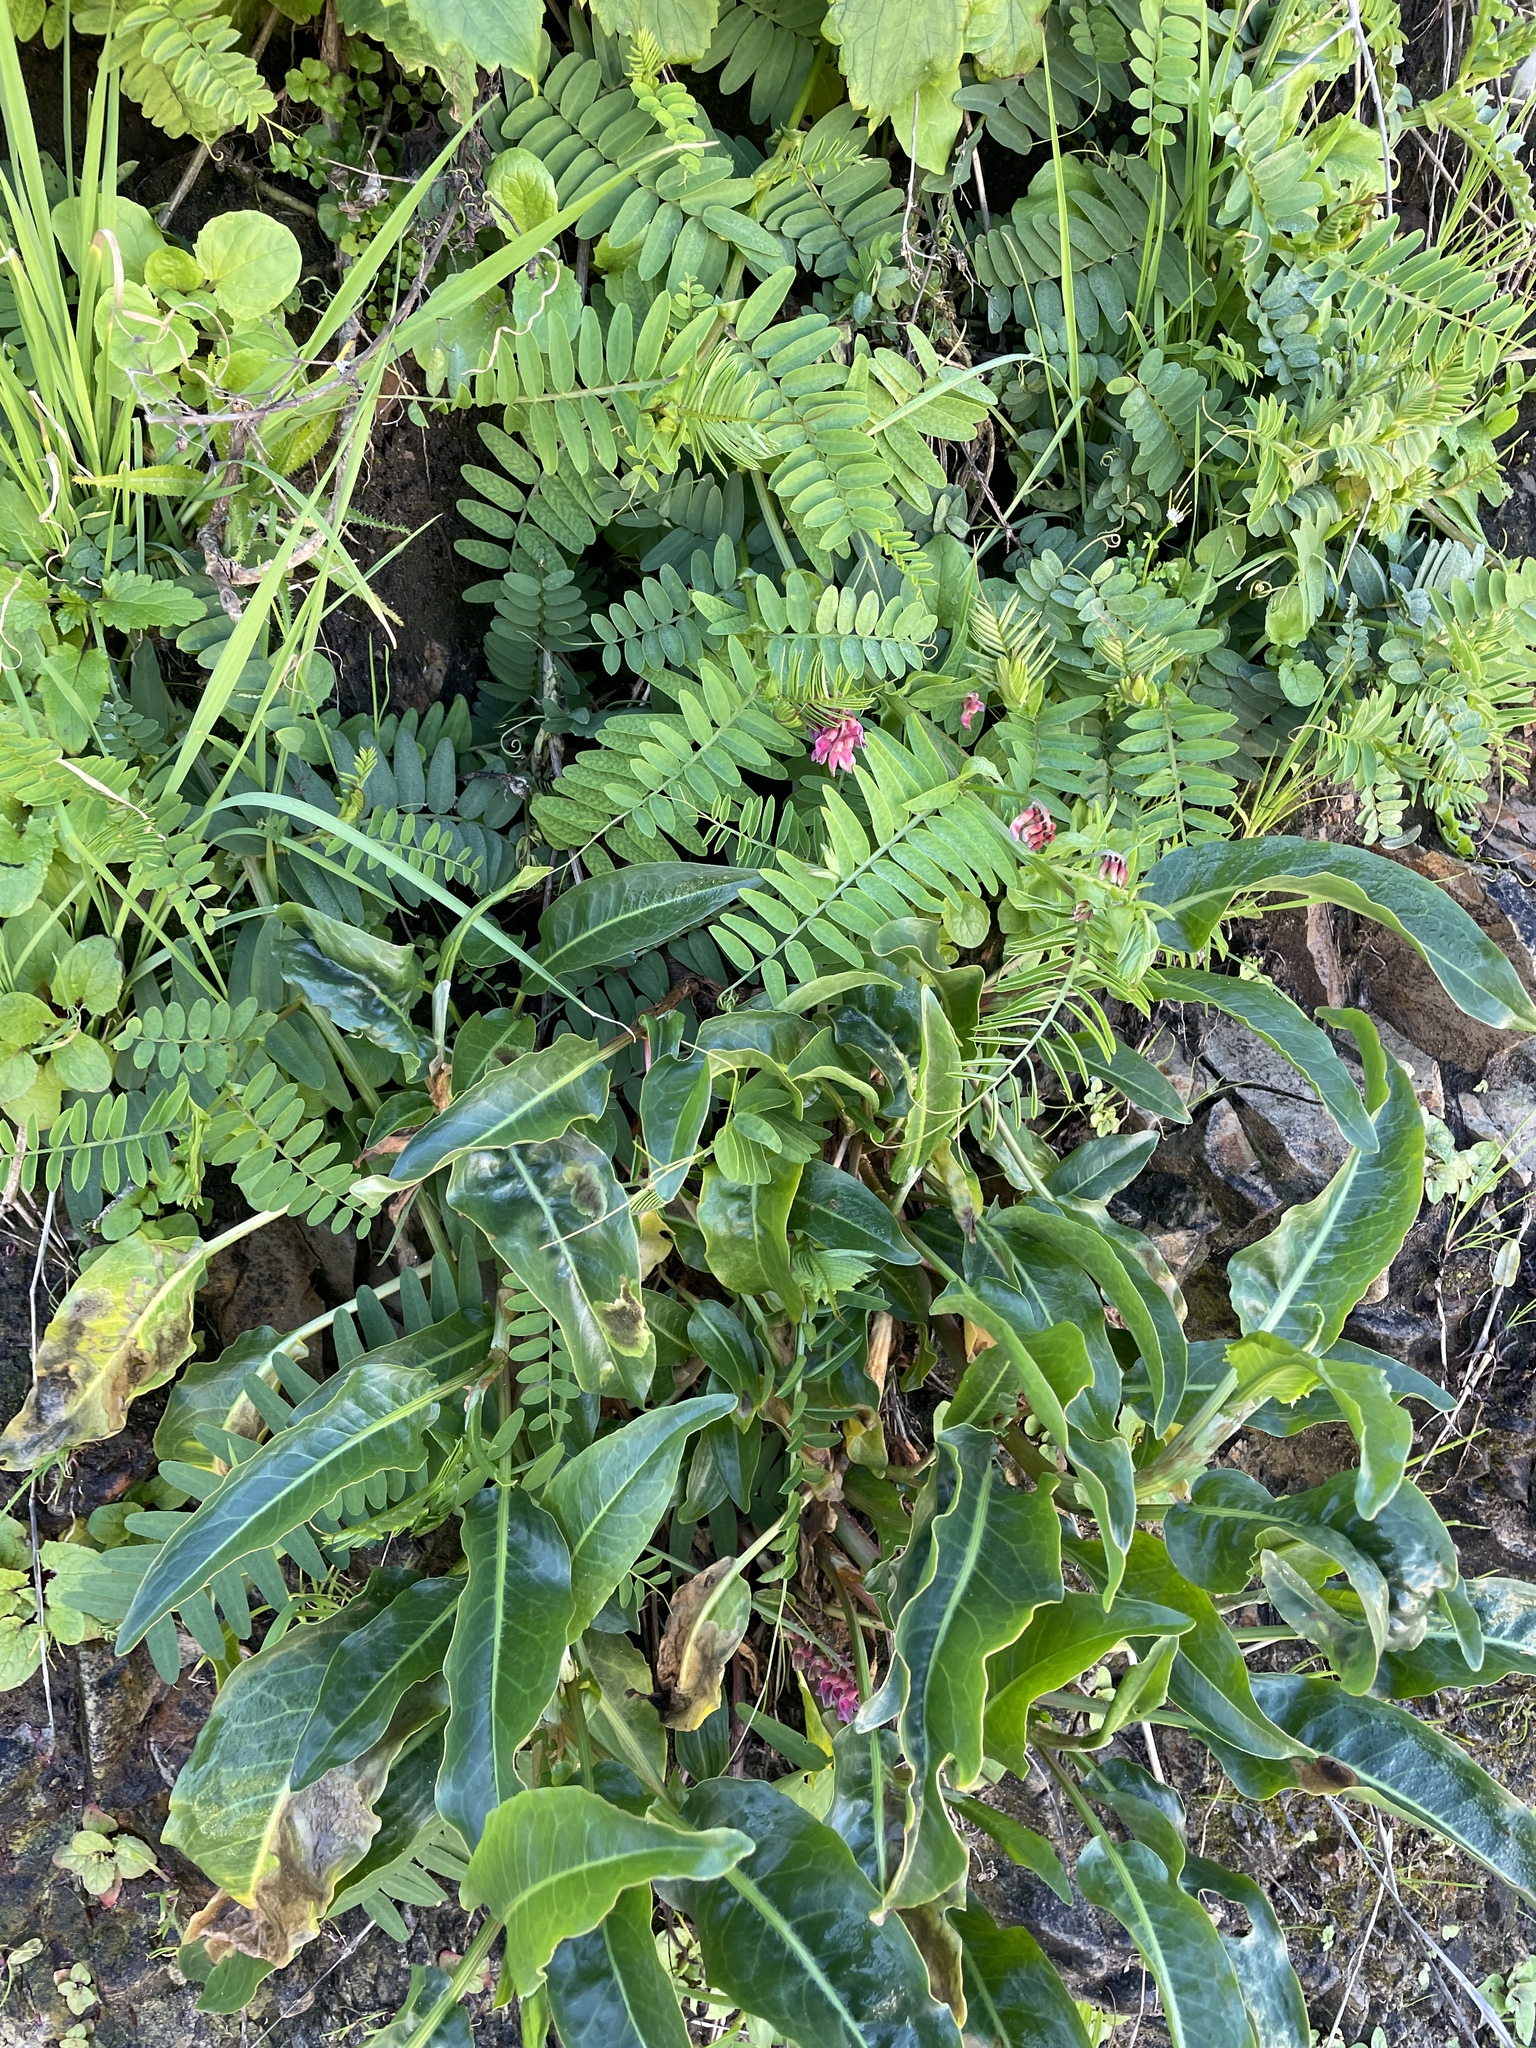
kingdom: Plantae
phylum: Tracheophyta
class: Magnoliopsida
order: Fabales
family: Fabaceae
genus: Vicia
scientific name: Vicia
